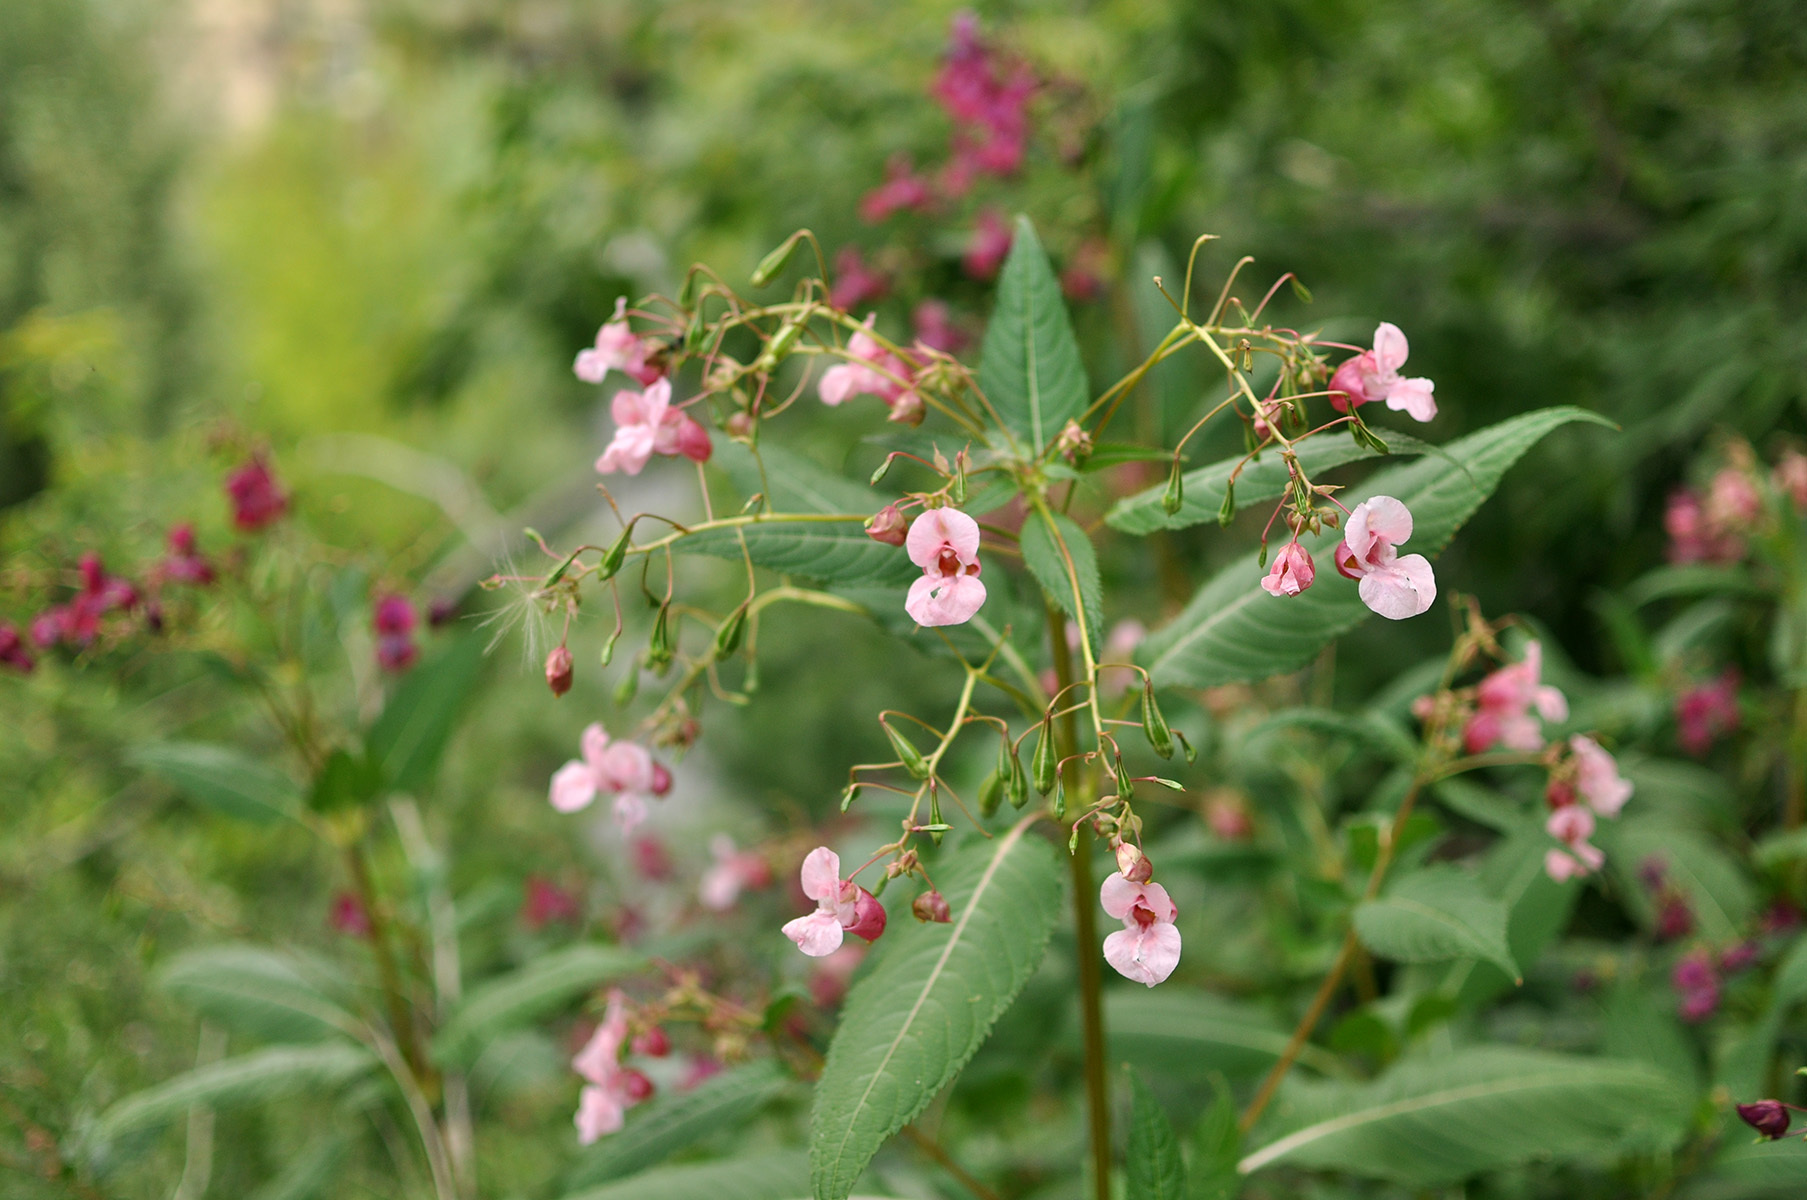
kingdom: Plantae
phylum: Tracheophyta
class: Magnoliopsida
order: Ericales
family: Balsaminaceae
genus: Impatiens
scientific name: Impatiens glandulifera
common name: Himalayan balsam
